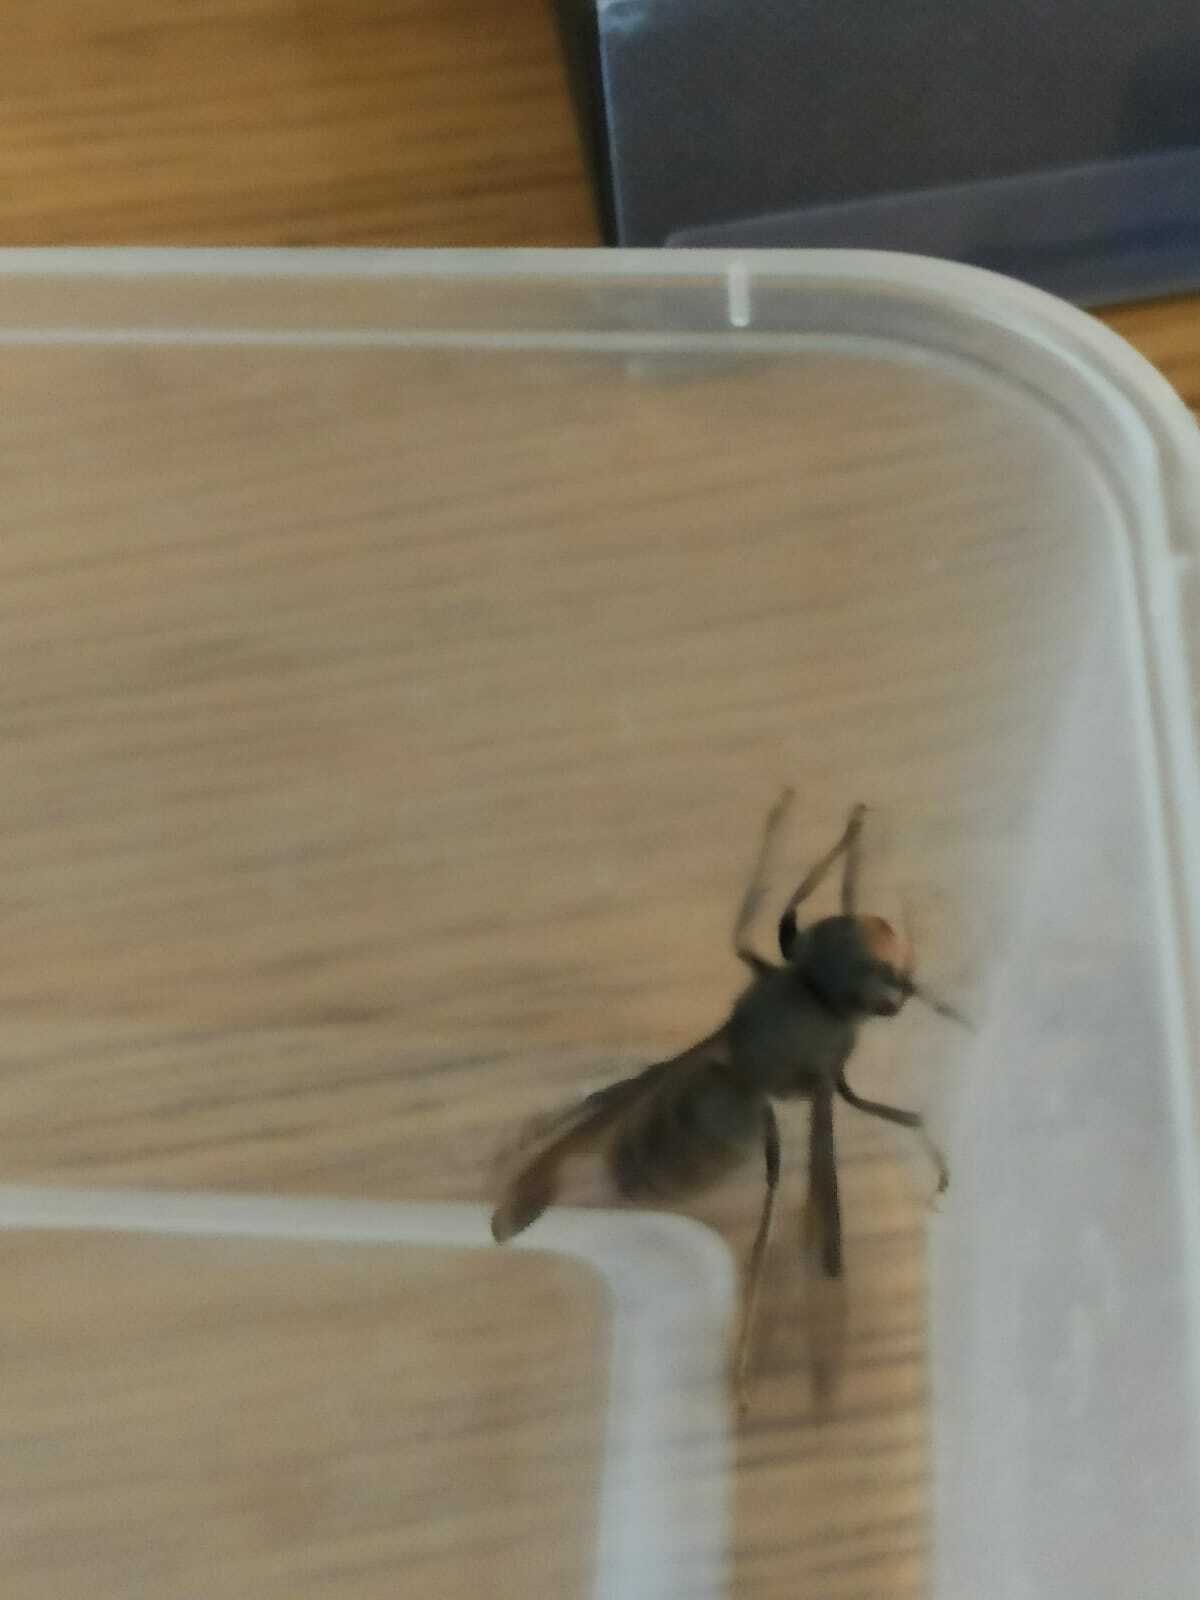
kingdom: Animalia
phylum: Arthropoda
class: Insecta
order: Hymenoptera
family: Vespidae
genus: Vespa
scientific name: Vespa velutina
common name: Asian hornet
